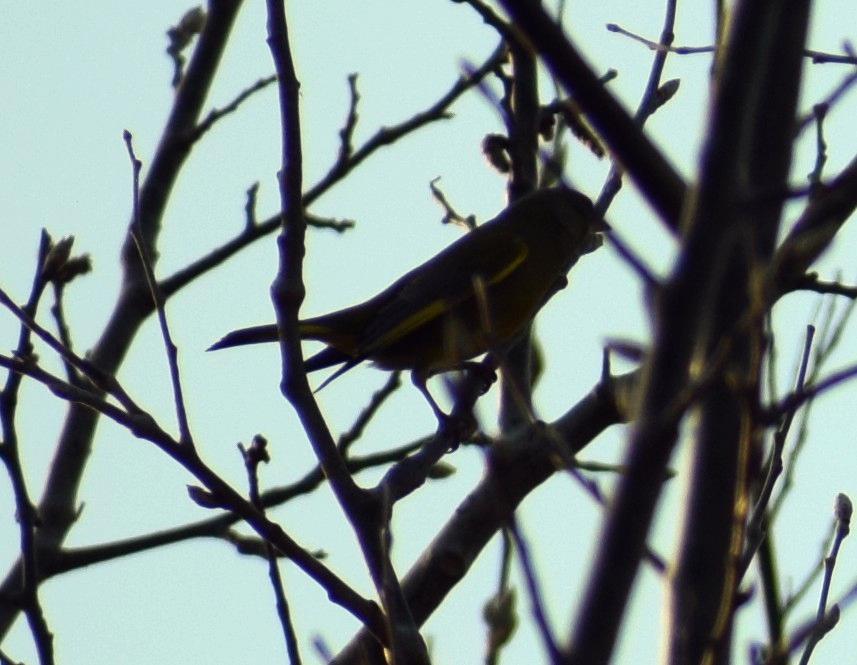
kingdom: Plantae
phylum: Tracheophyta
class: Liliopsida
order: Poales
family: Poaceae
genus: Chloris
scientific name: Chloris chloris
